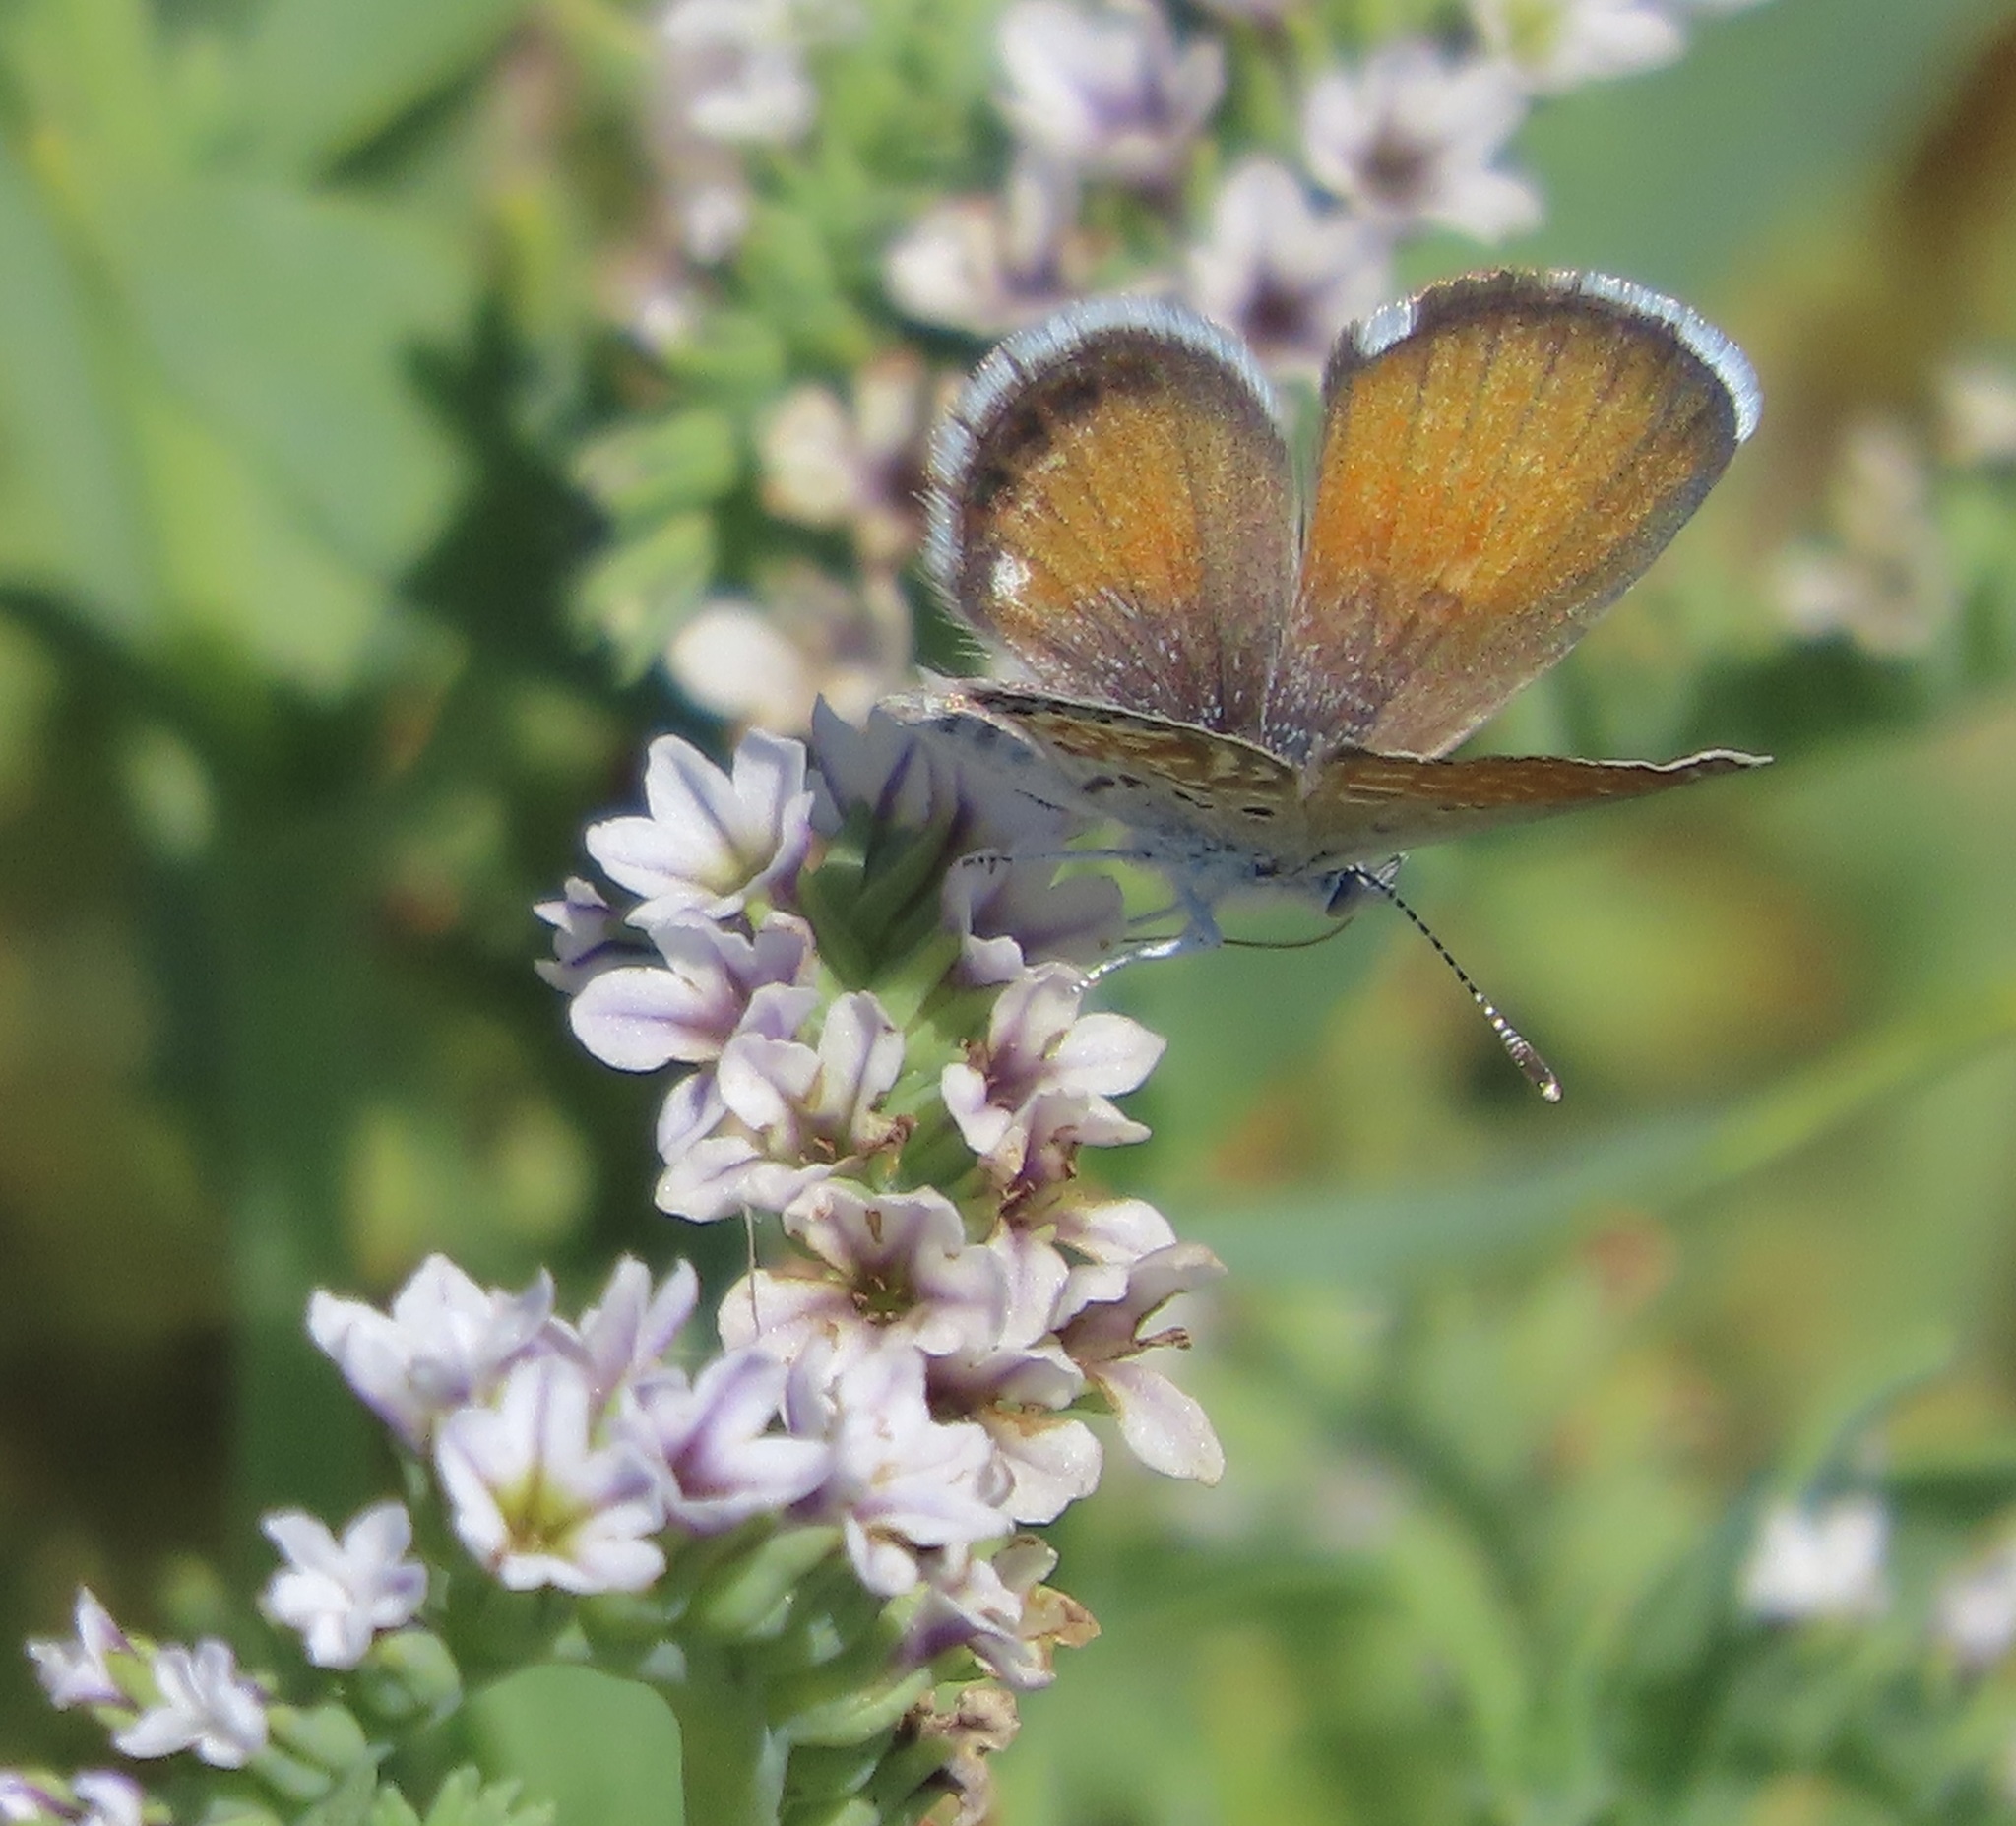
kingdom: Animalia
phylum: Arthropoda
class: Insecta
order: Lepidoptera
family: Lycaenidae
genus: Brephidium
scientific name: Brephidium exilis
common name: Pygmy blue
